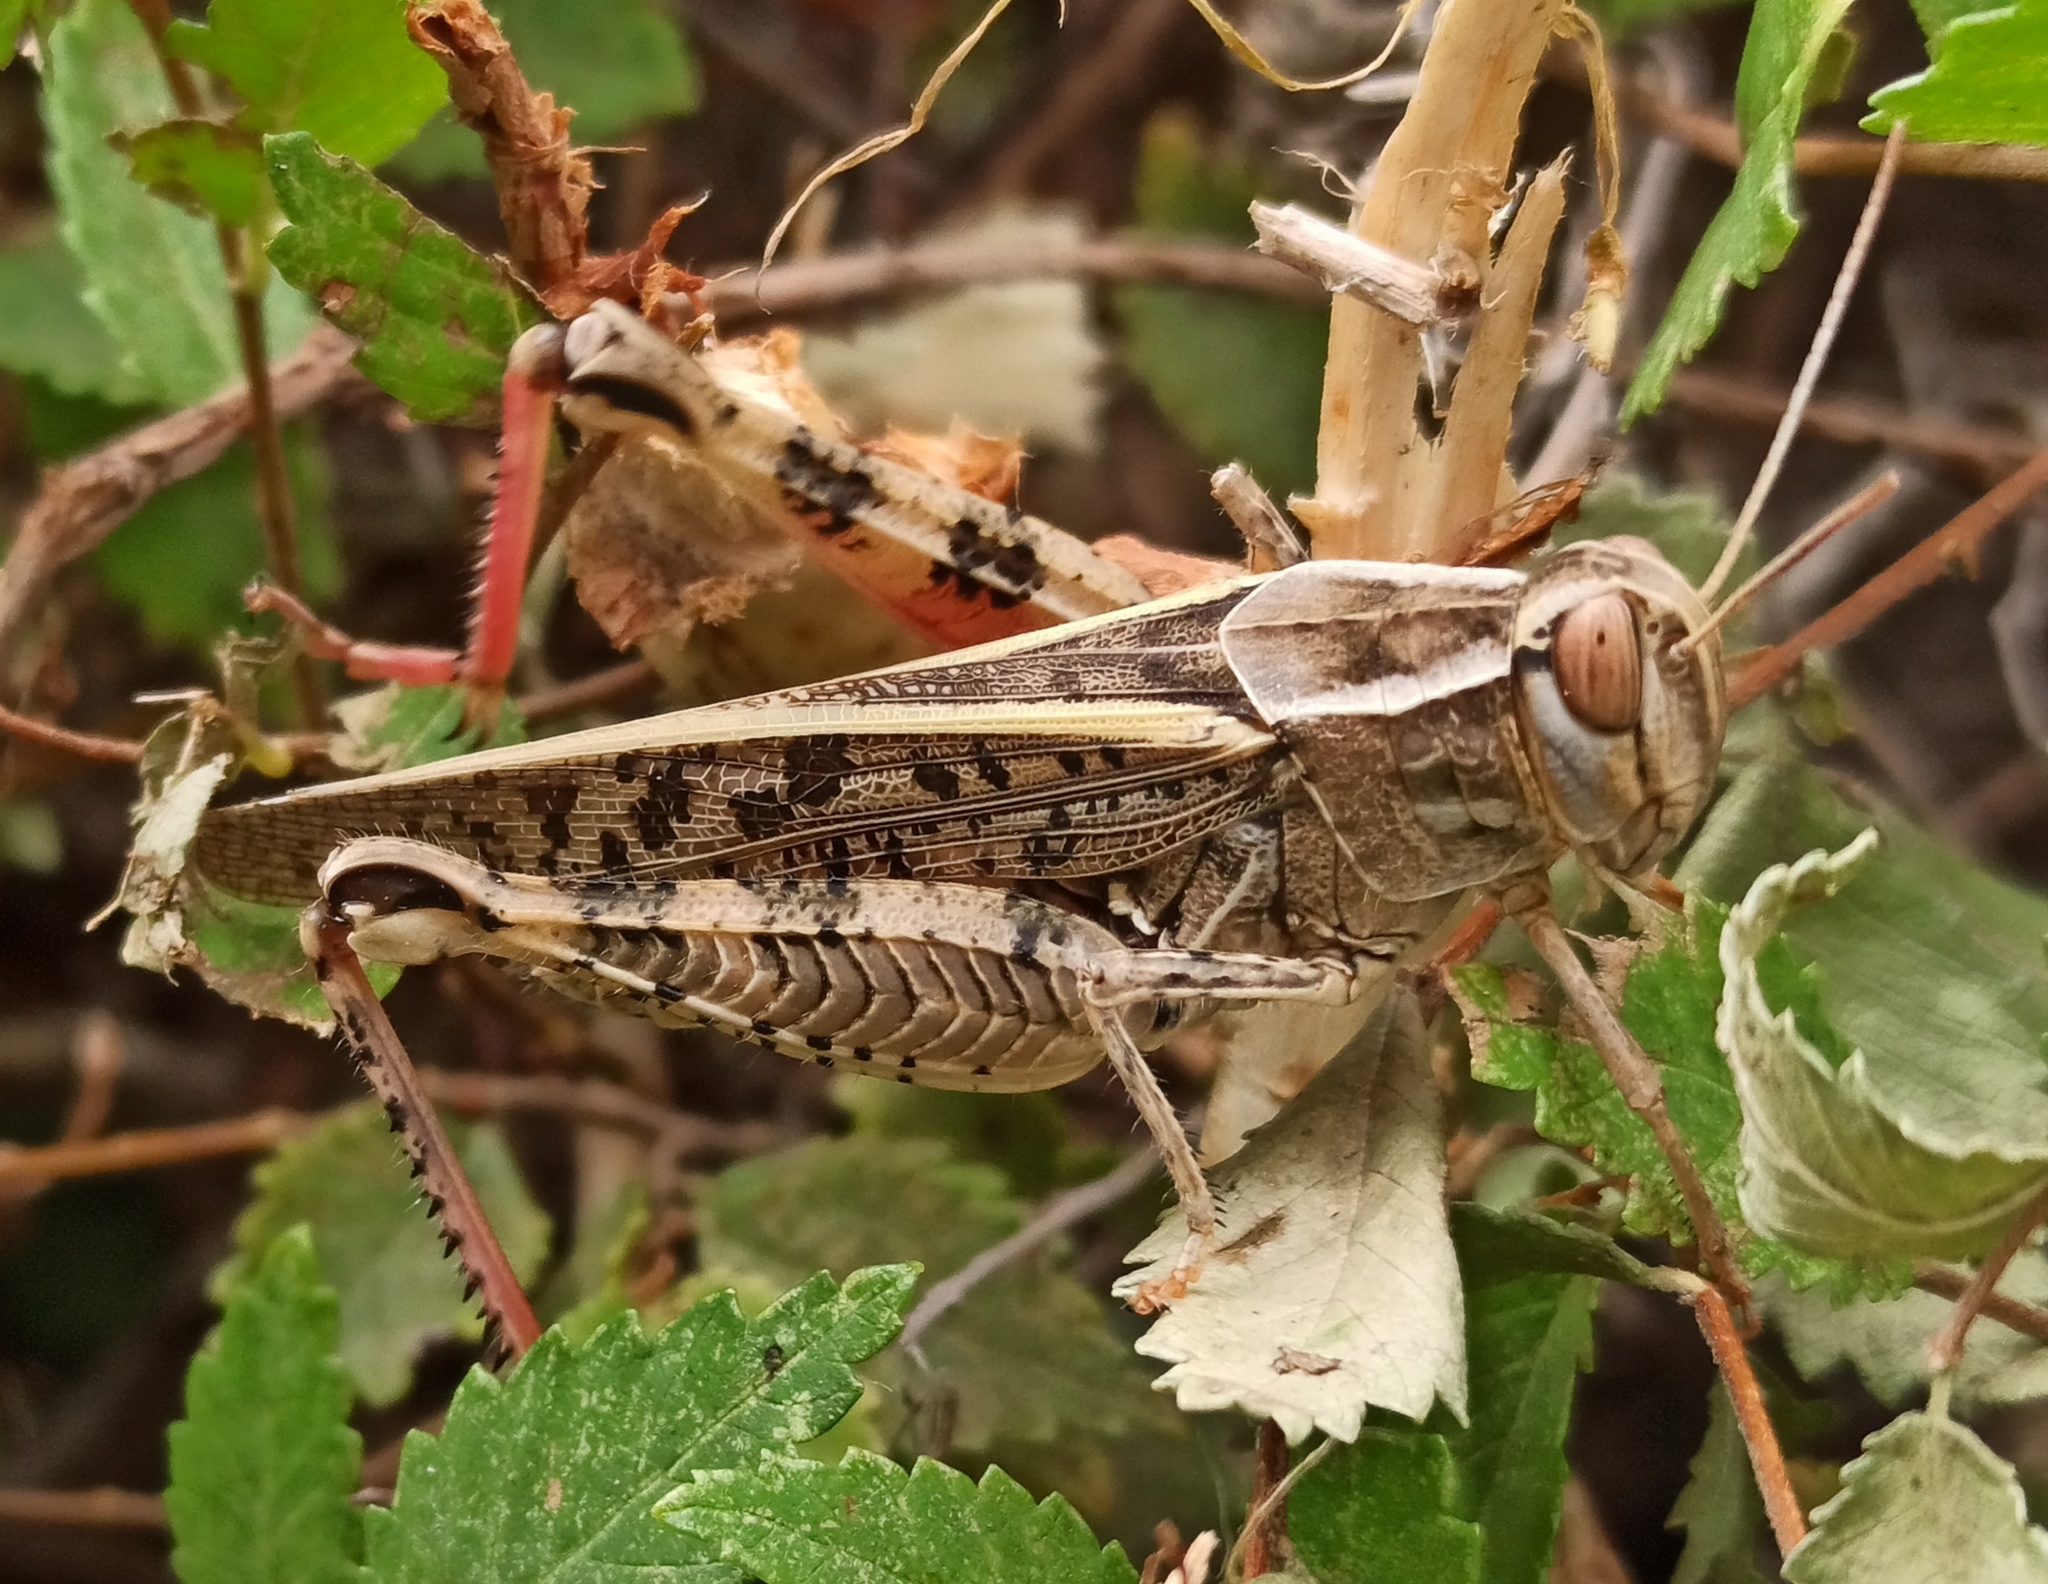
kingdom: Animalia
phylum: Arthropoda
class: Insecta
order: Orthoptera
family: Acrididae
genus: Calliptamus
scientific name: Calliptamus italicus
